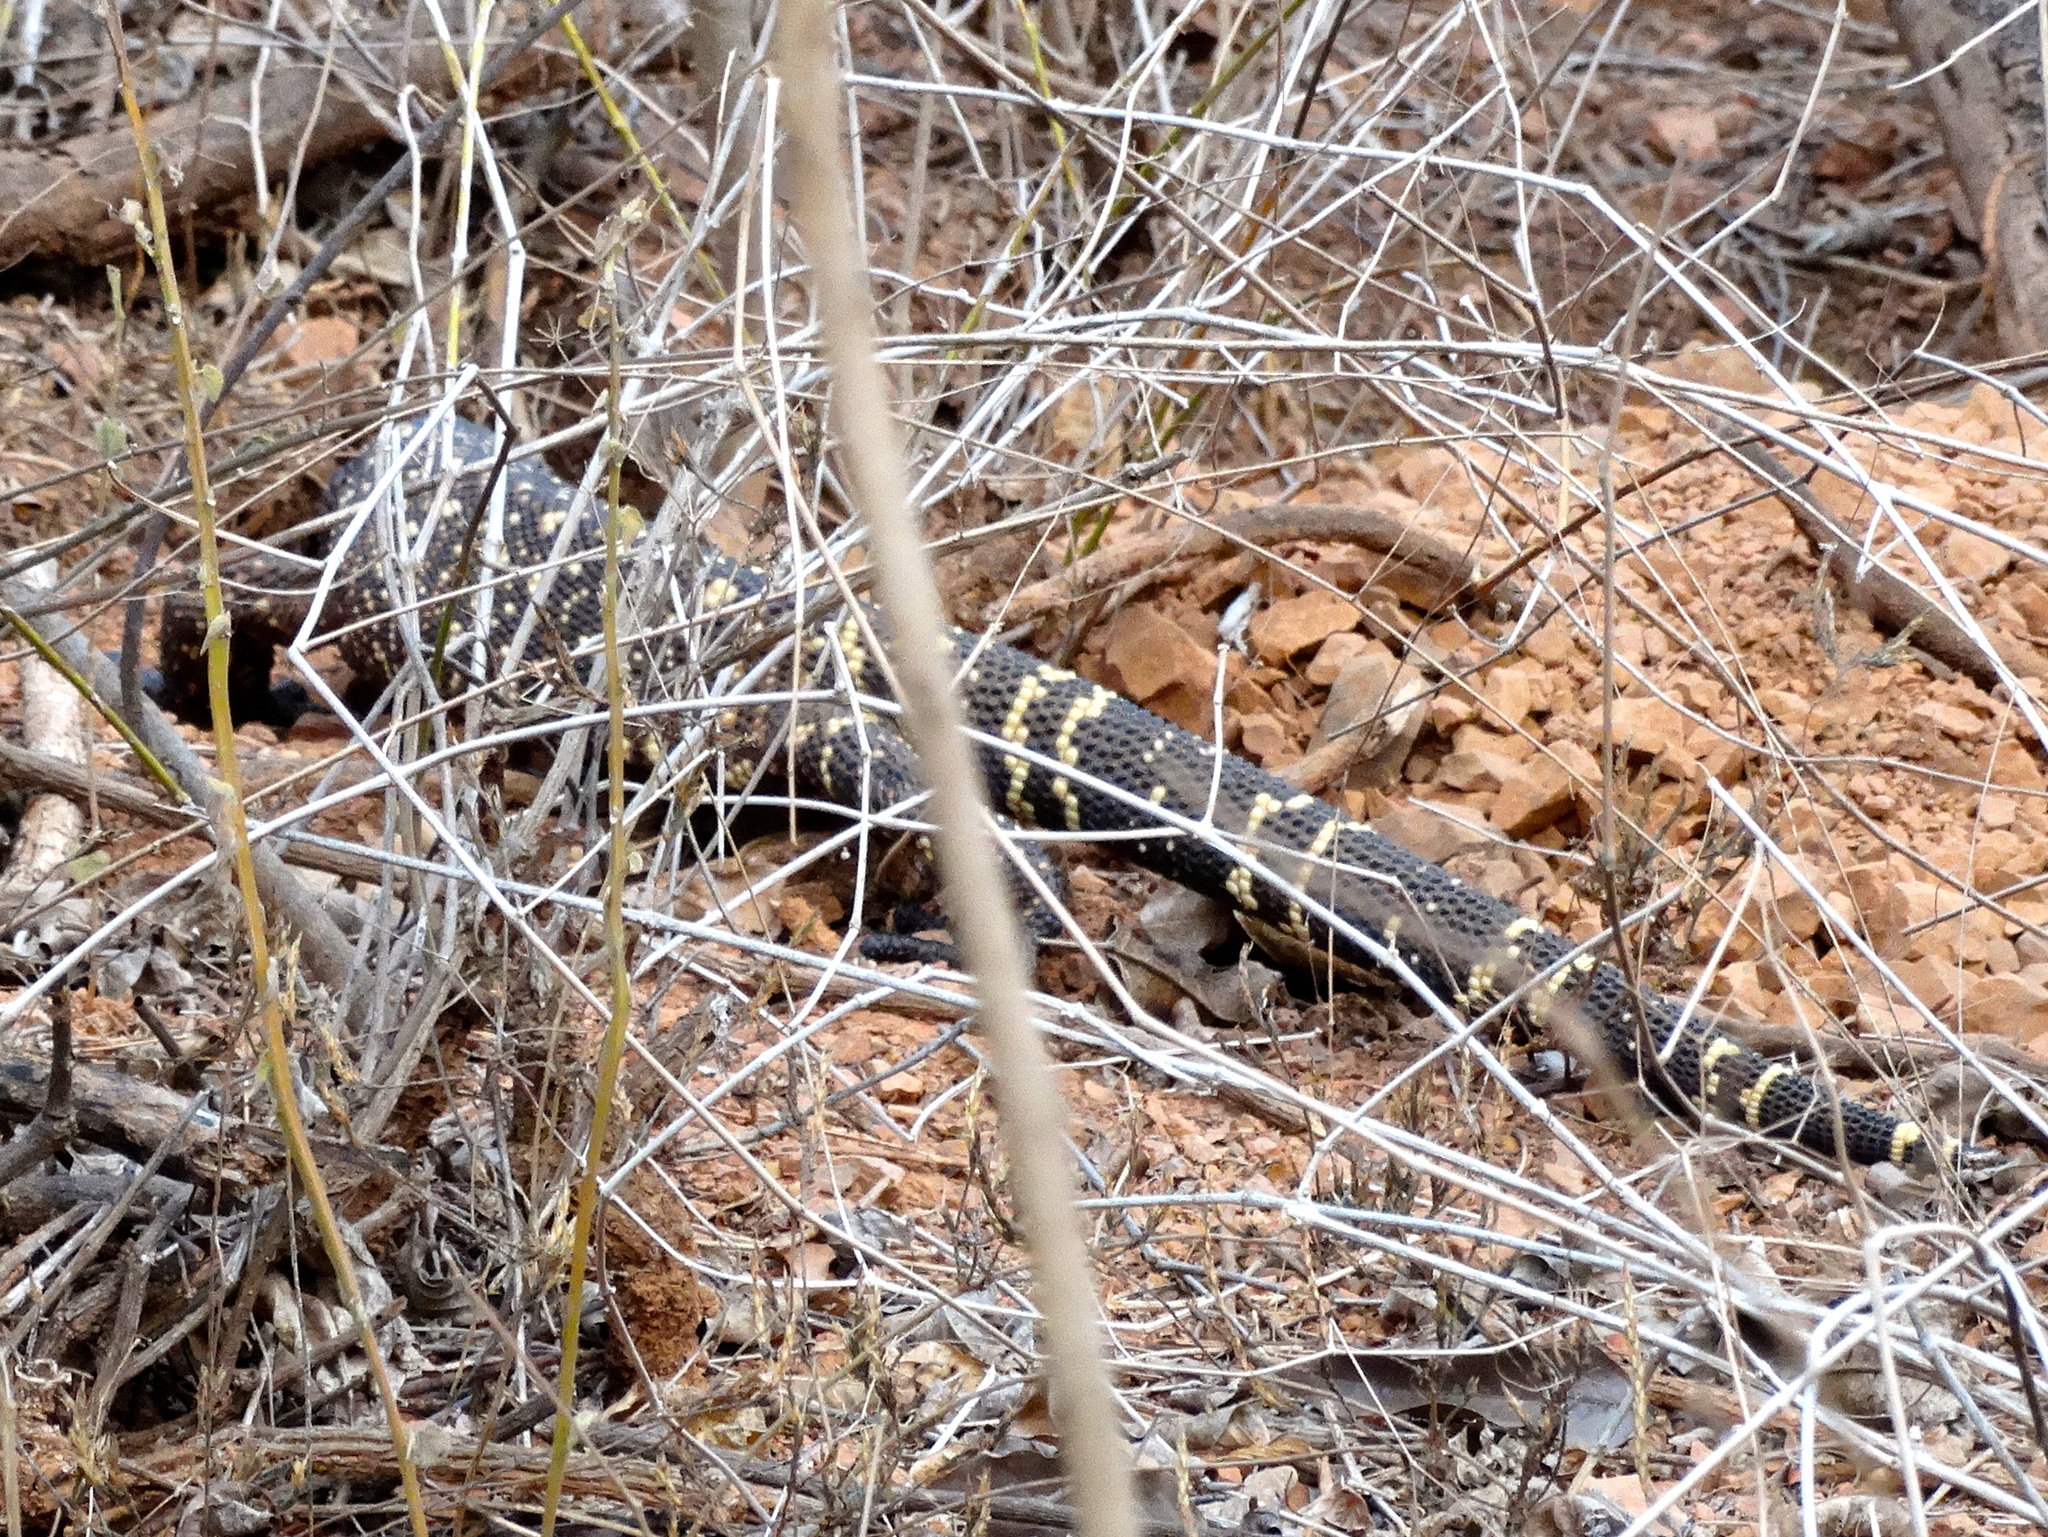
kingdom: Animalia
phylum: Chordata
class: Squamata
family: Helodermatidae
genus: Heloderma
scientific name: Heloderma horridum
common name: Mexican beaded lizard
